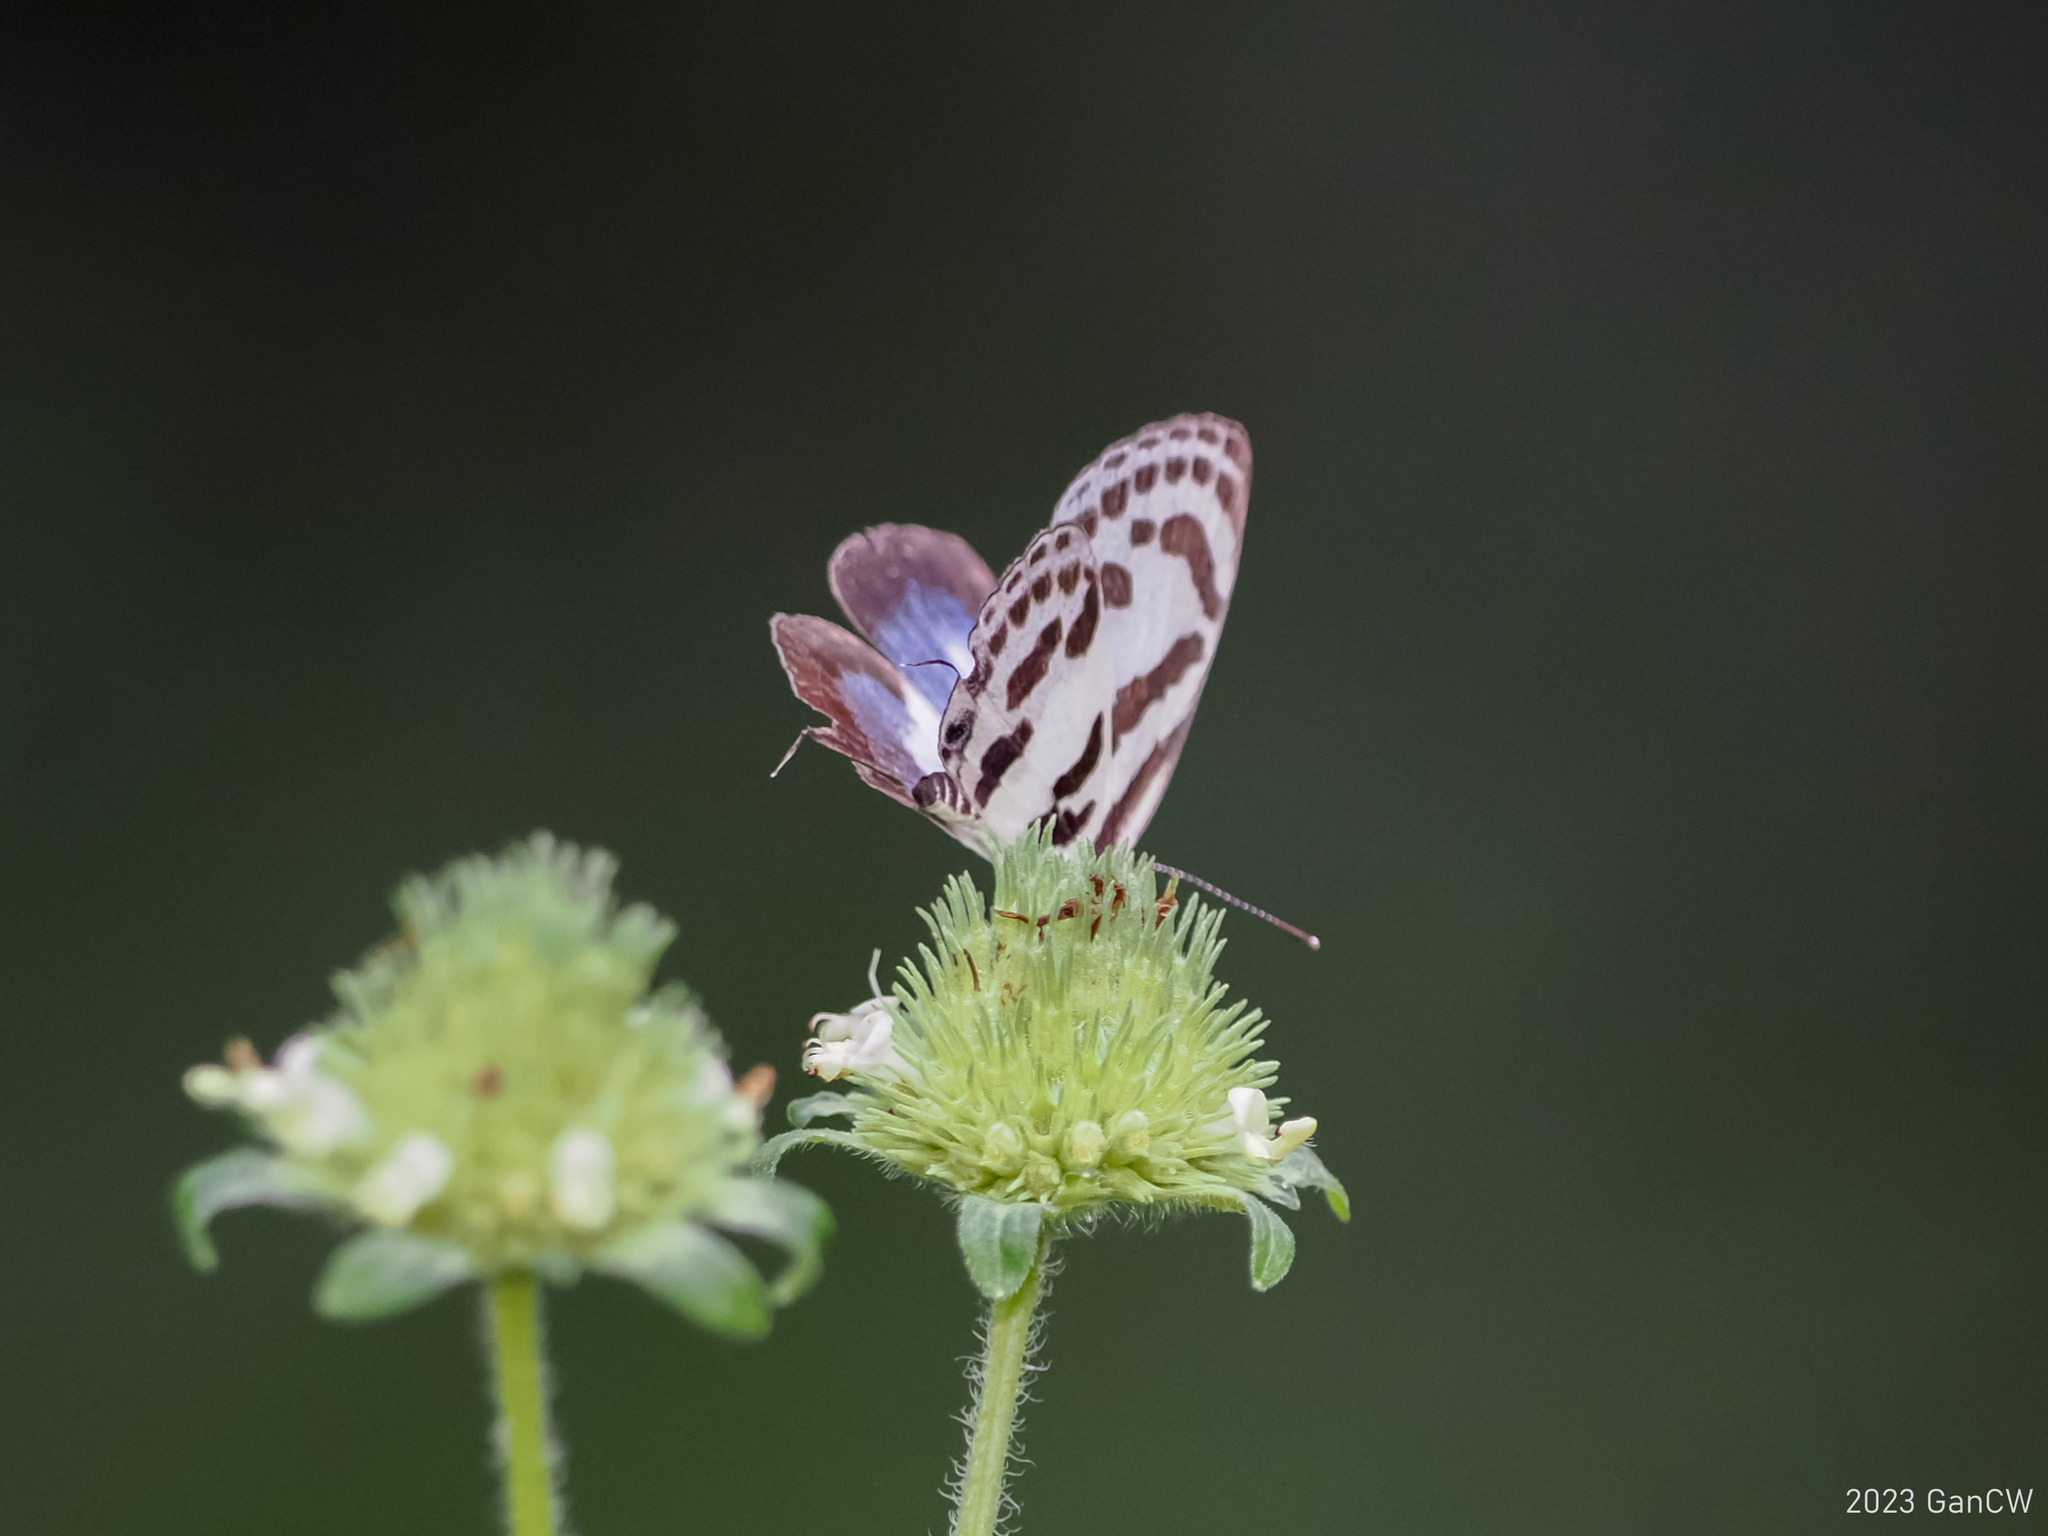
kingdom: Animalia
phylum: Arthropoda
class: Insecta
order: Lepidoptera
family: Lycaenidae
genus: Discolampa
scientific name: Discolampa ethion
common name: Banded blue pierrot
